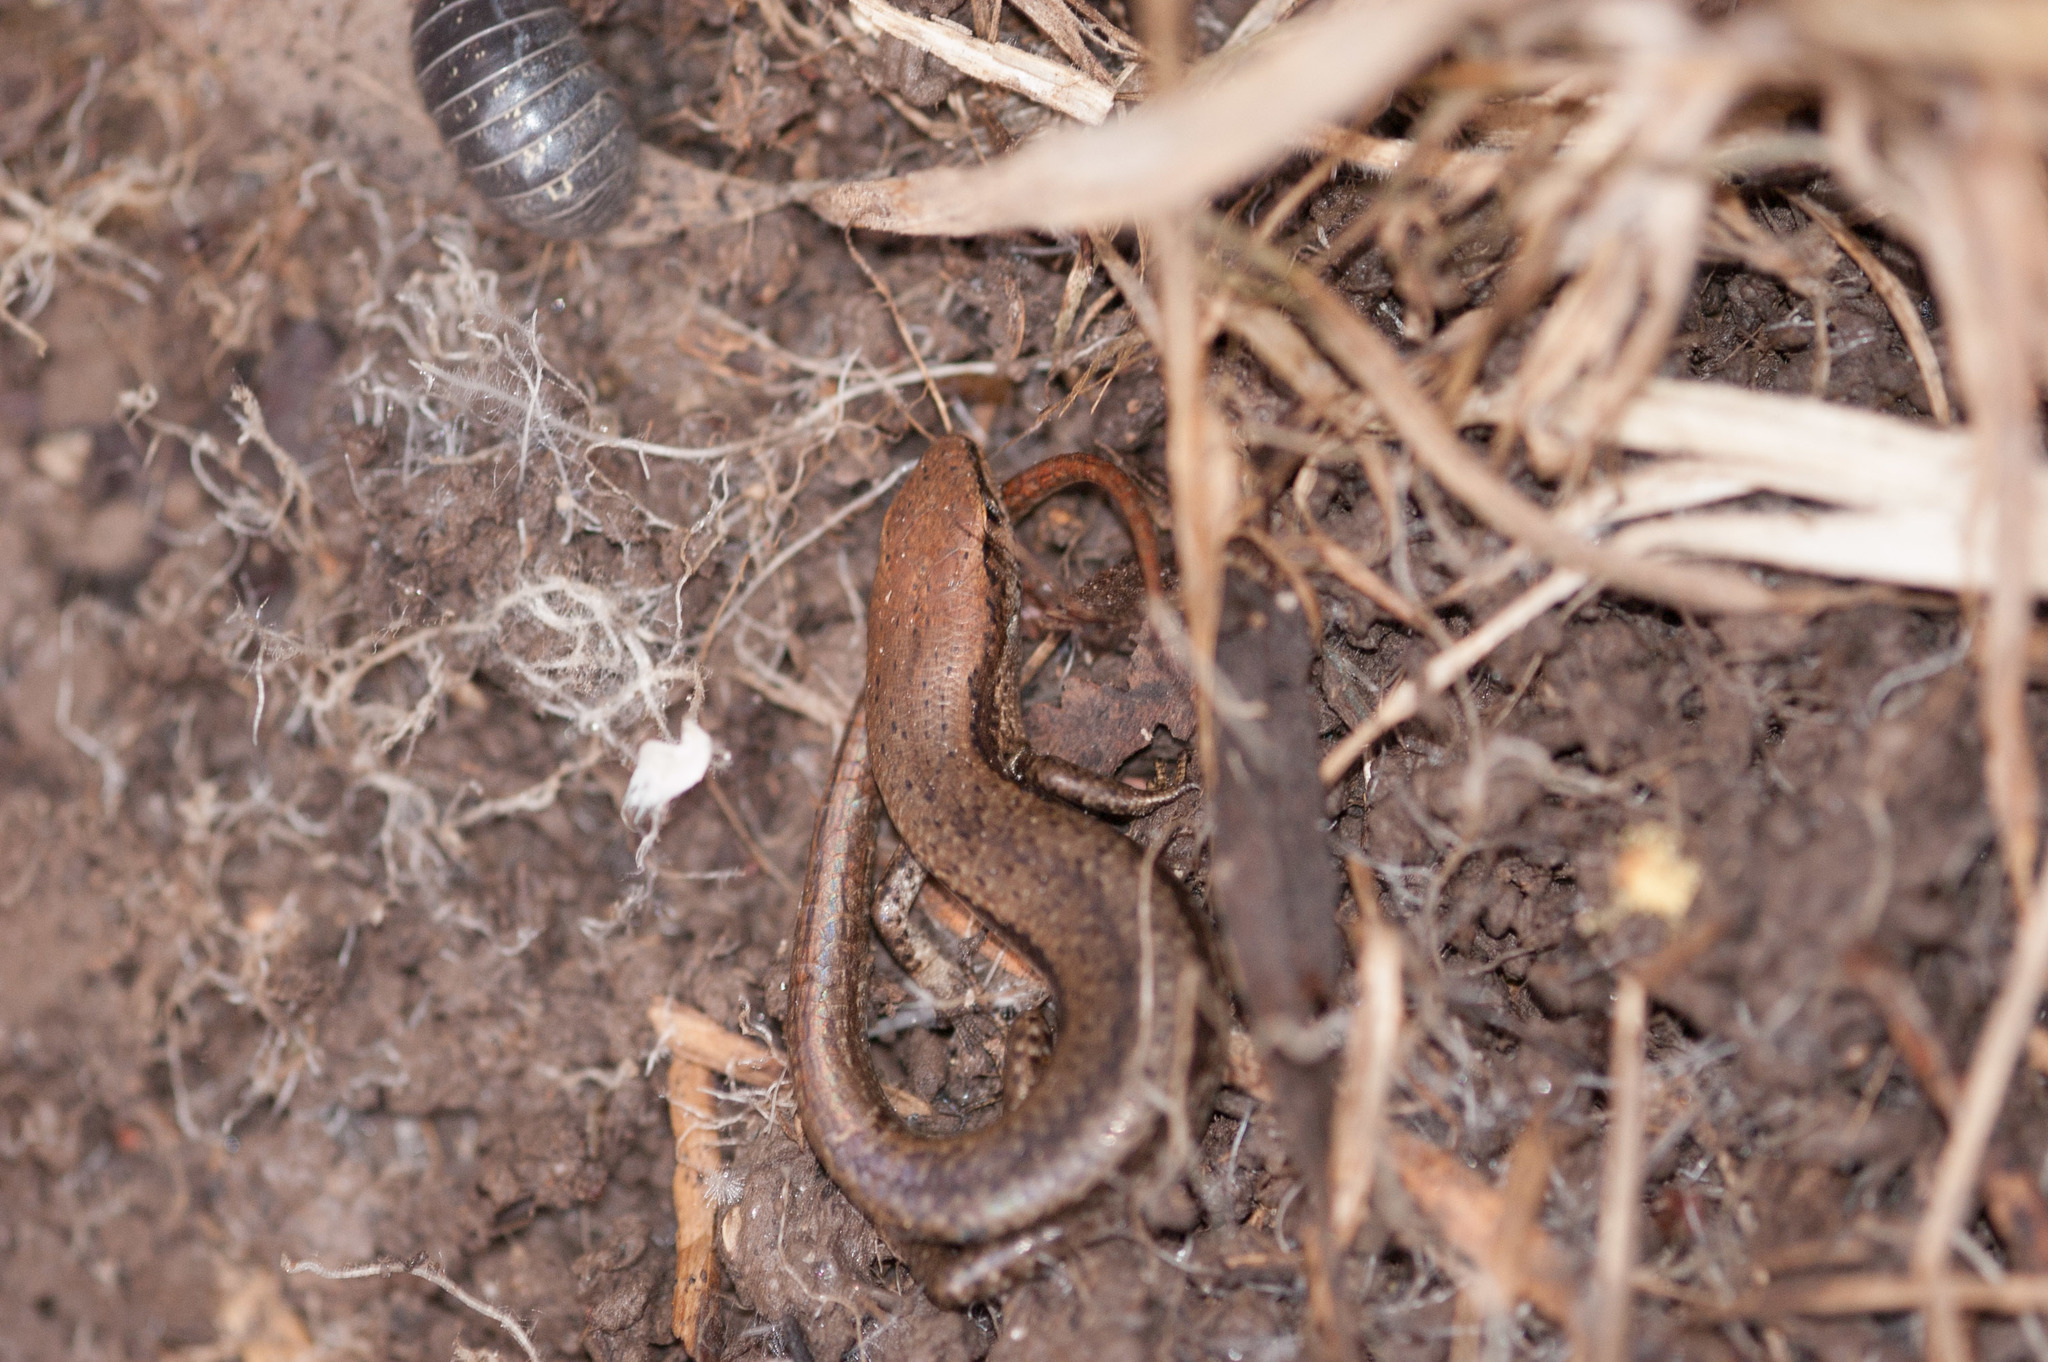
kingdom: Animalia
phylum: Chordata
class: Squamata
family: Scincidae
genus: Lampropholis
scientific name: Lampropholis guichenoti
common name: Garden skink
